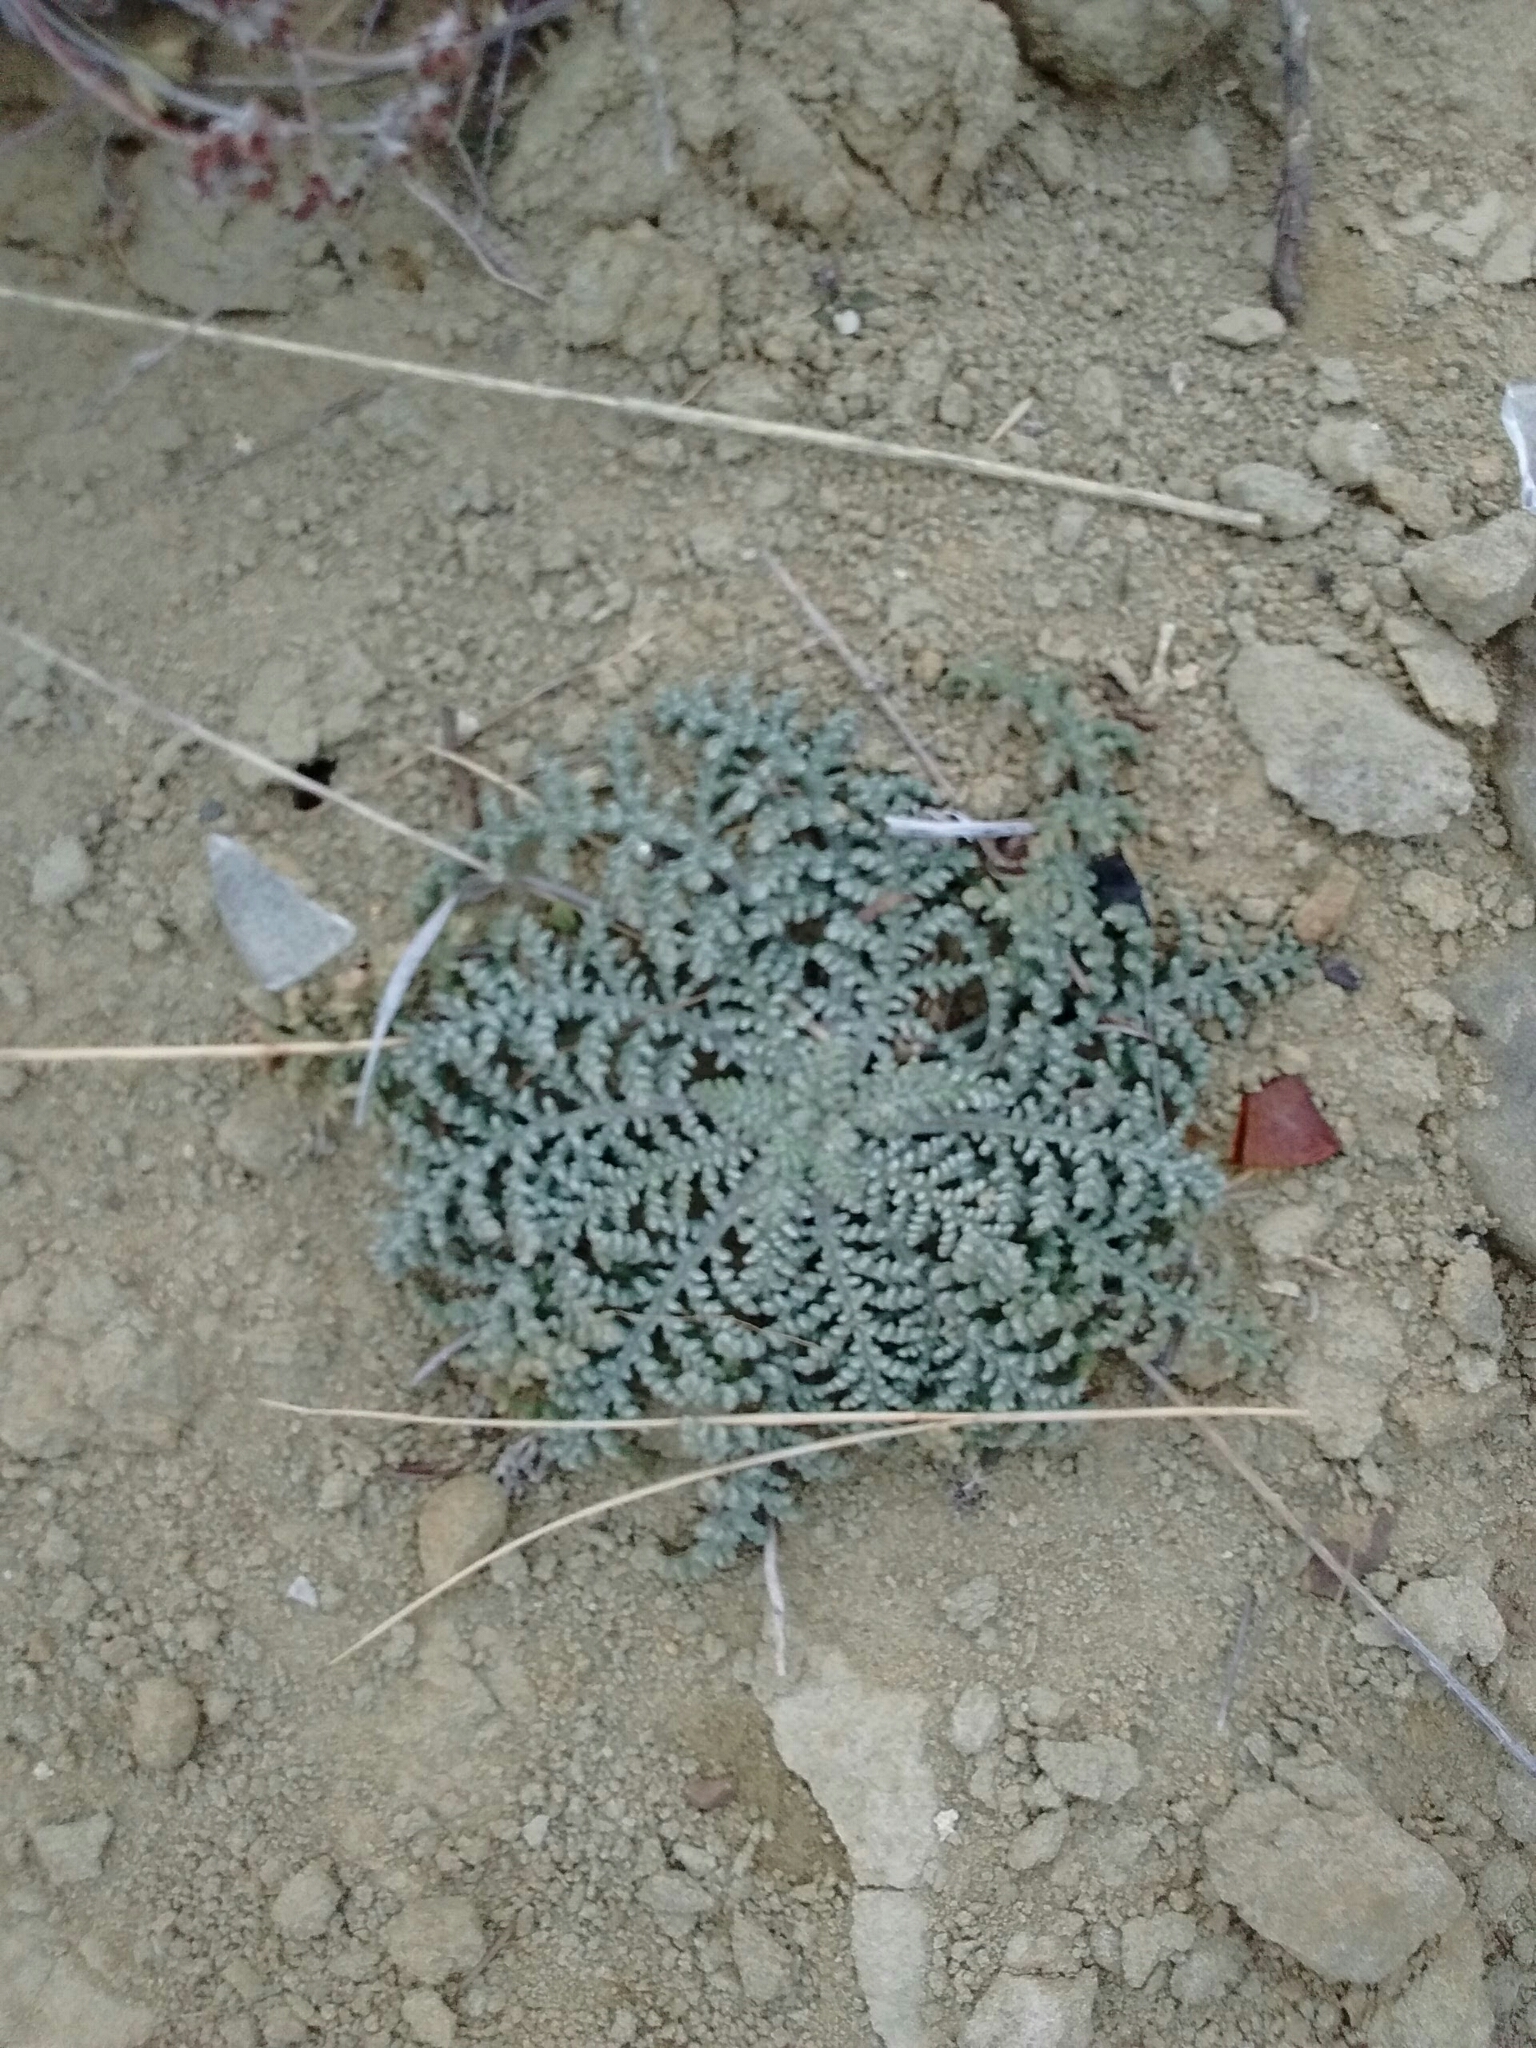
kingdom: Plantae
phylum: Tracheophyta
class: Magnoliopsida
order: Asterales
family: Asteraceae
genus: Chaenactis
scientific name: Chaenactis douglasii
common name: Hoary pincushion
